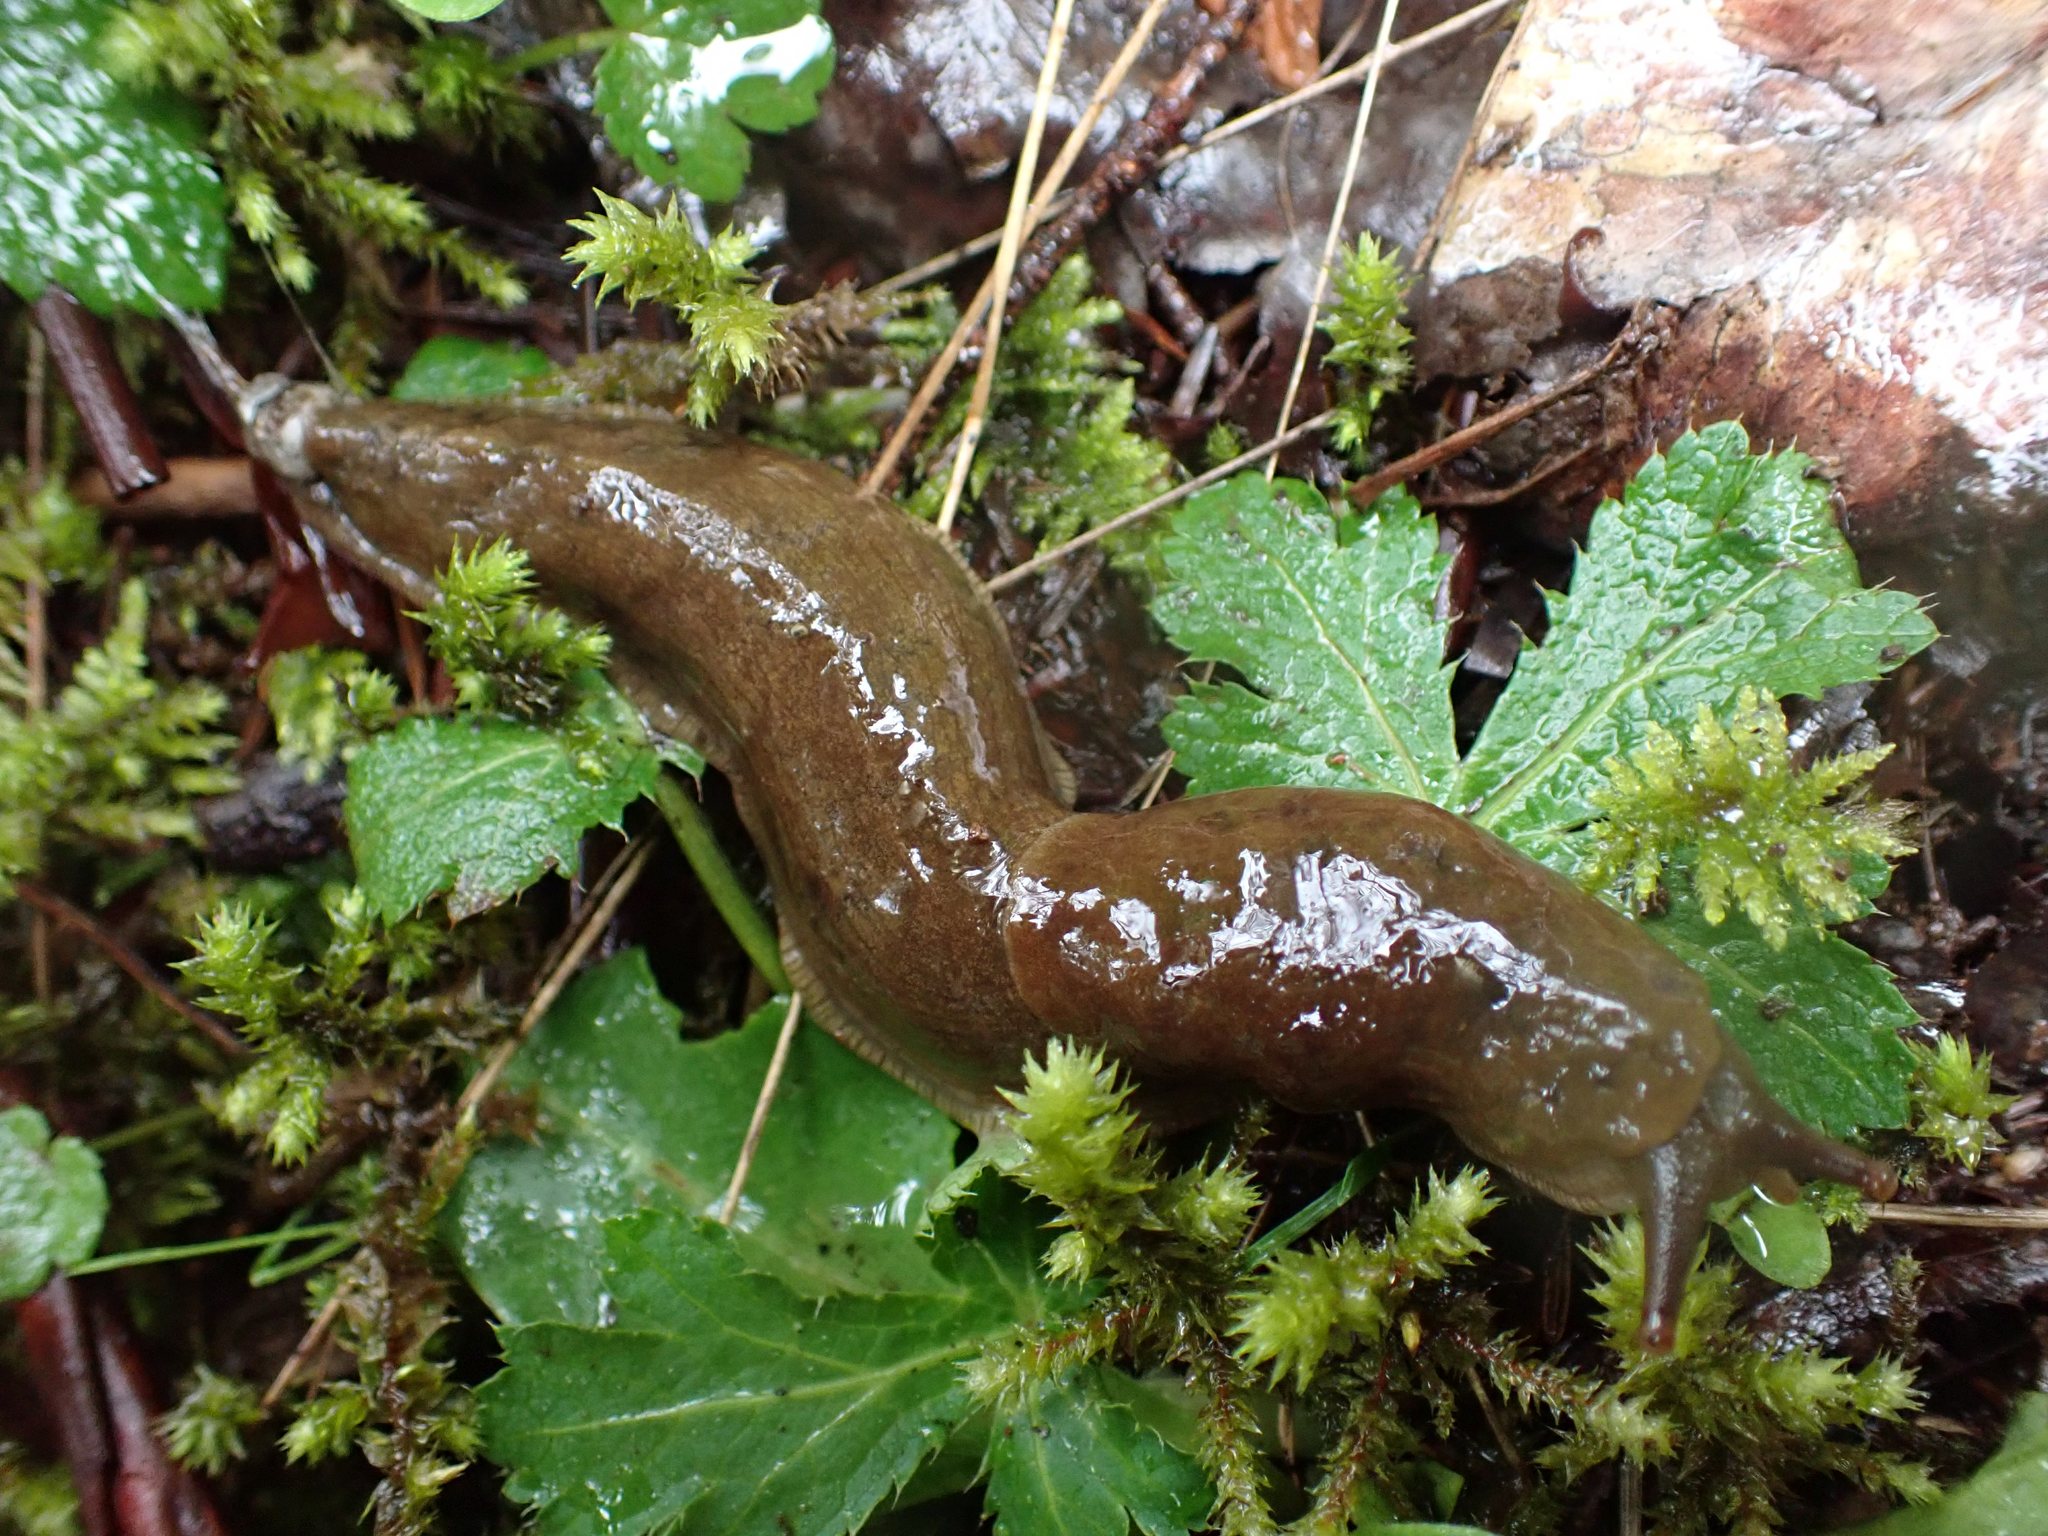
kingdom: Animalia
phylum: Mollusca
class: Gastropoda
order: Stylommatophora
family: Ariolimacidae
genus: Ariolimax
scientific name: Ariolimax columbianus
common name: Pacific banana slug
